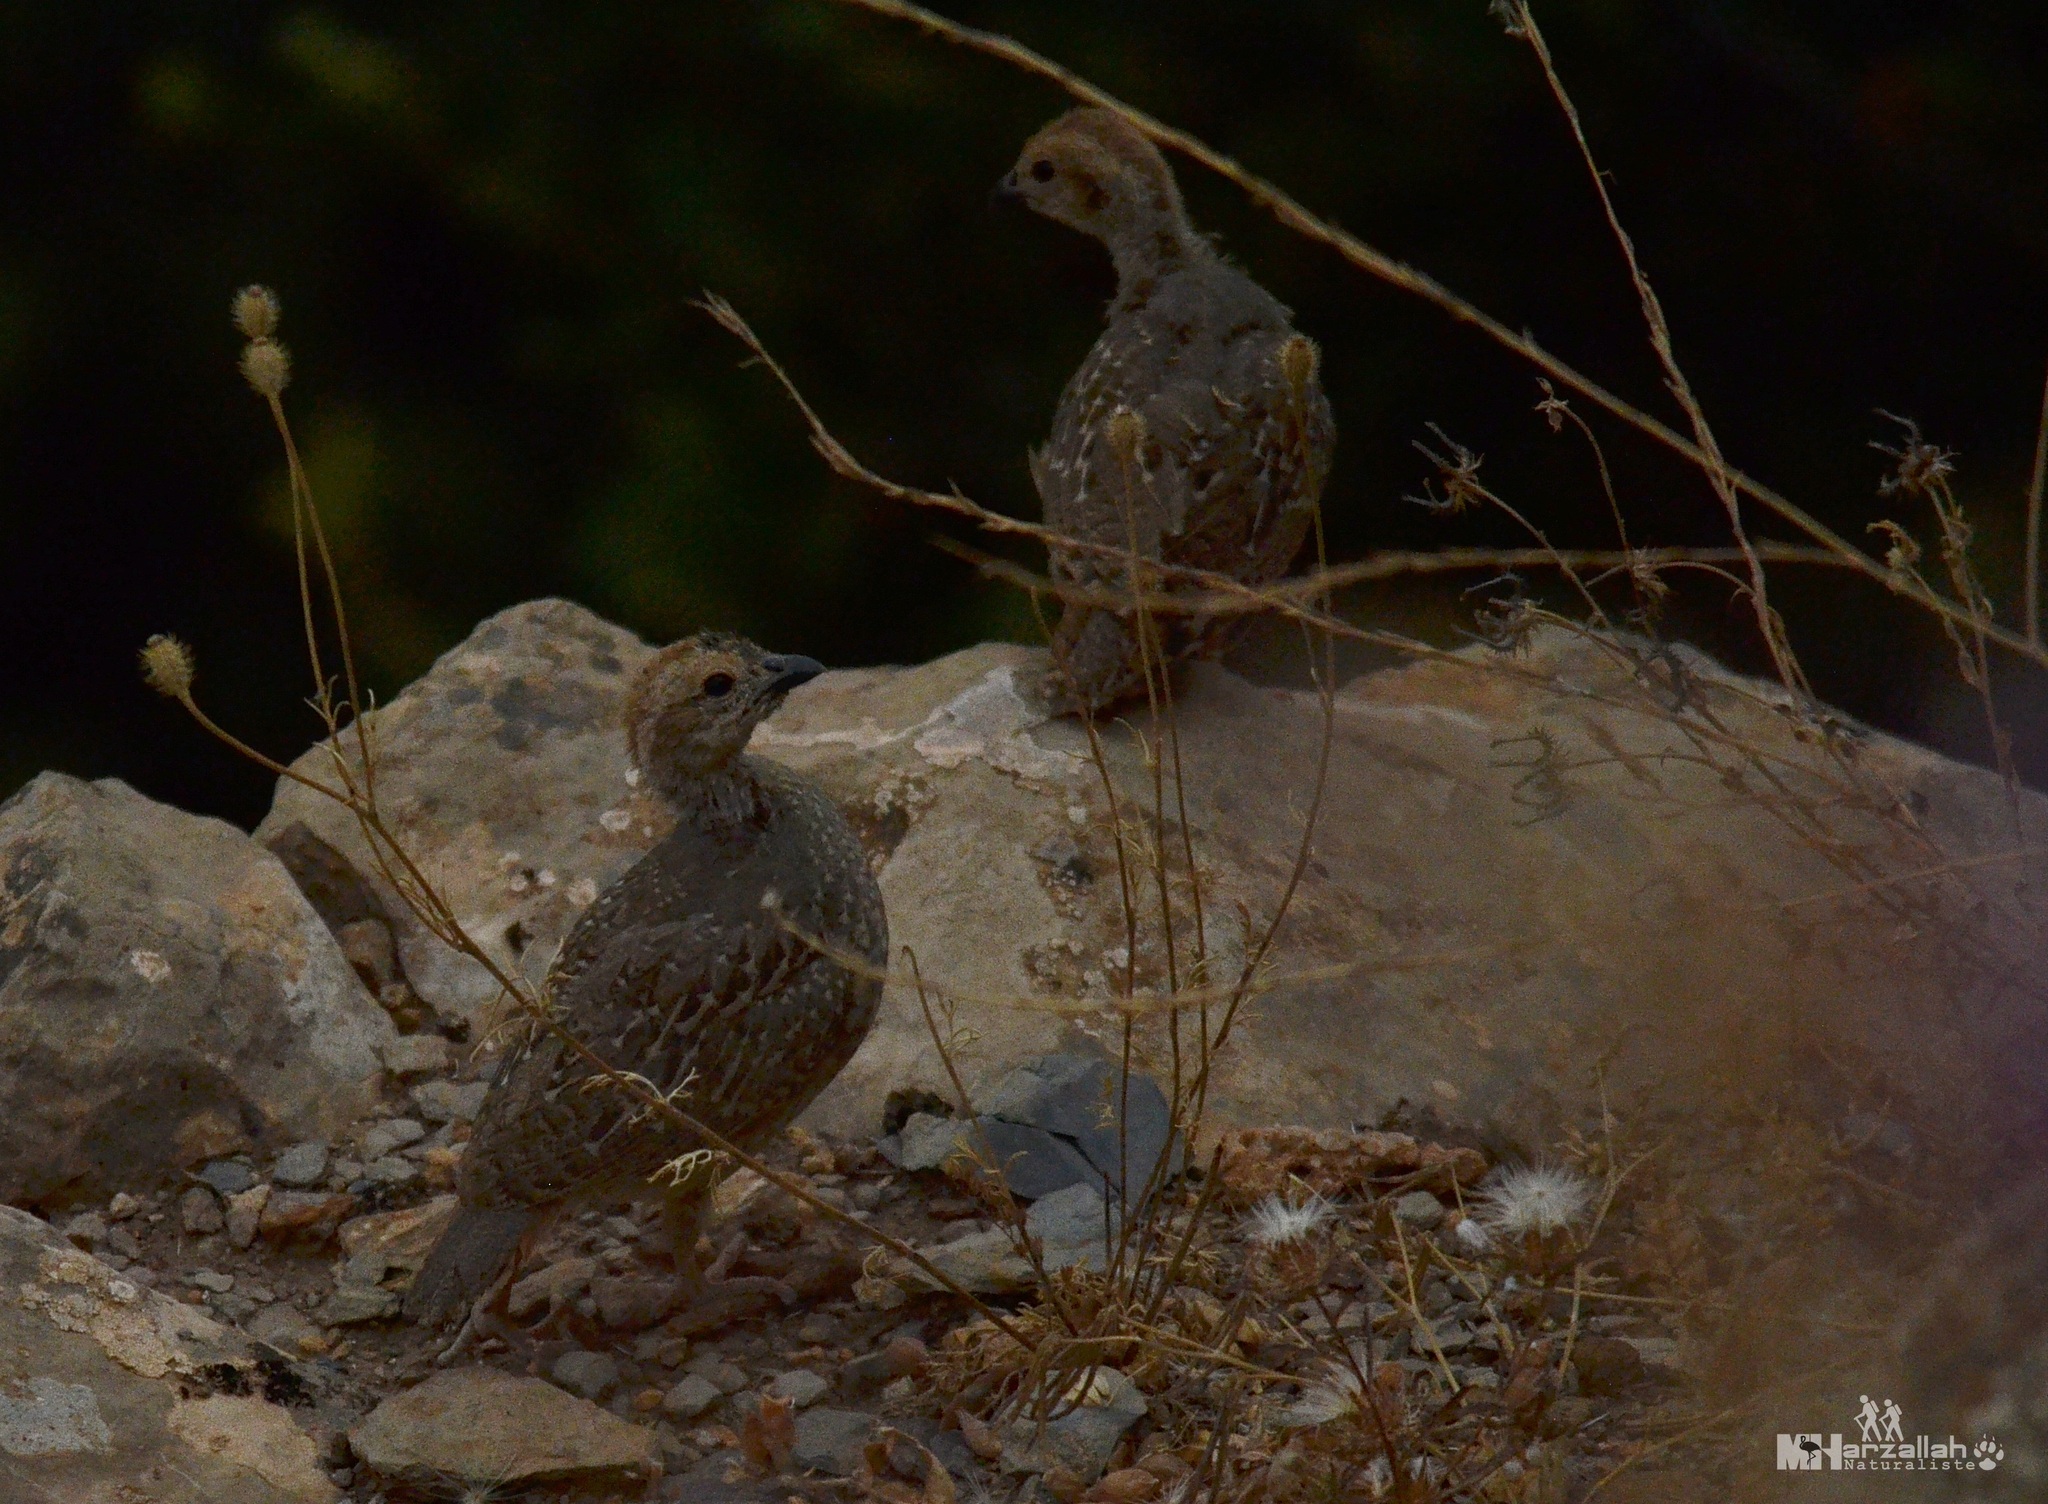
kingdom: Animalia
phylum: Chordata
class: Aves
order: Galliformes
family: Phasianidae
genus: Alectoris
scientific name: Alectoris barbara
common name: Barbary partridge
